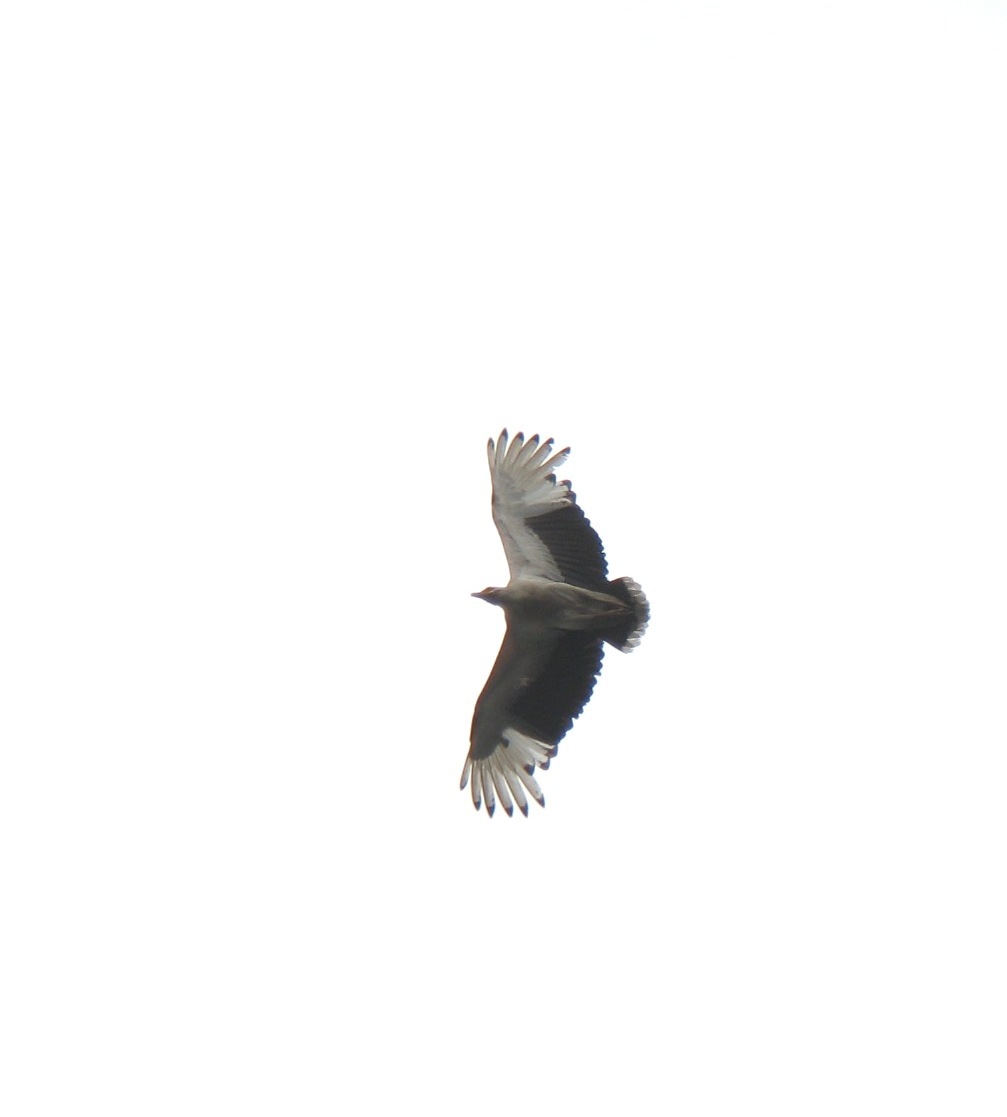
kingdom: Animalia
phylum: Chordata
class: Aves
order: Accipitriformes
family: Accipitridae
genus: Gypohierax
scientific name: Gypohierax angolensis
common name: Palm-nut vulture
